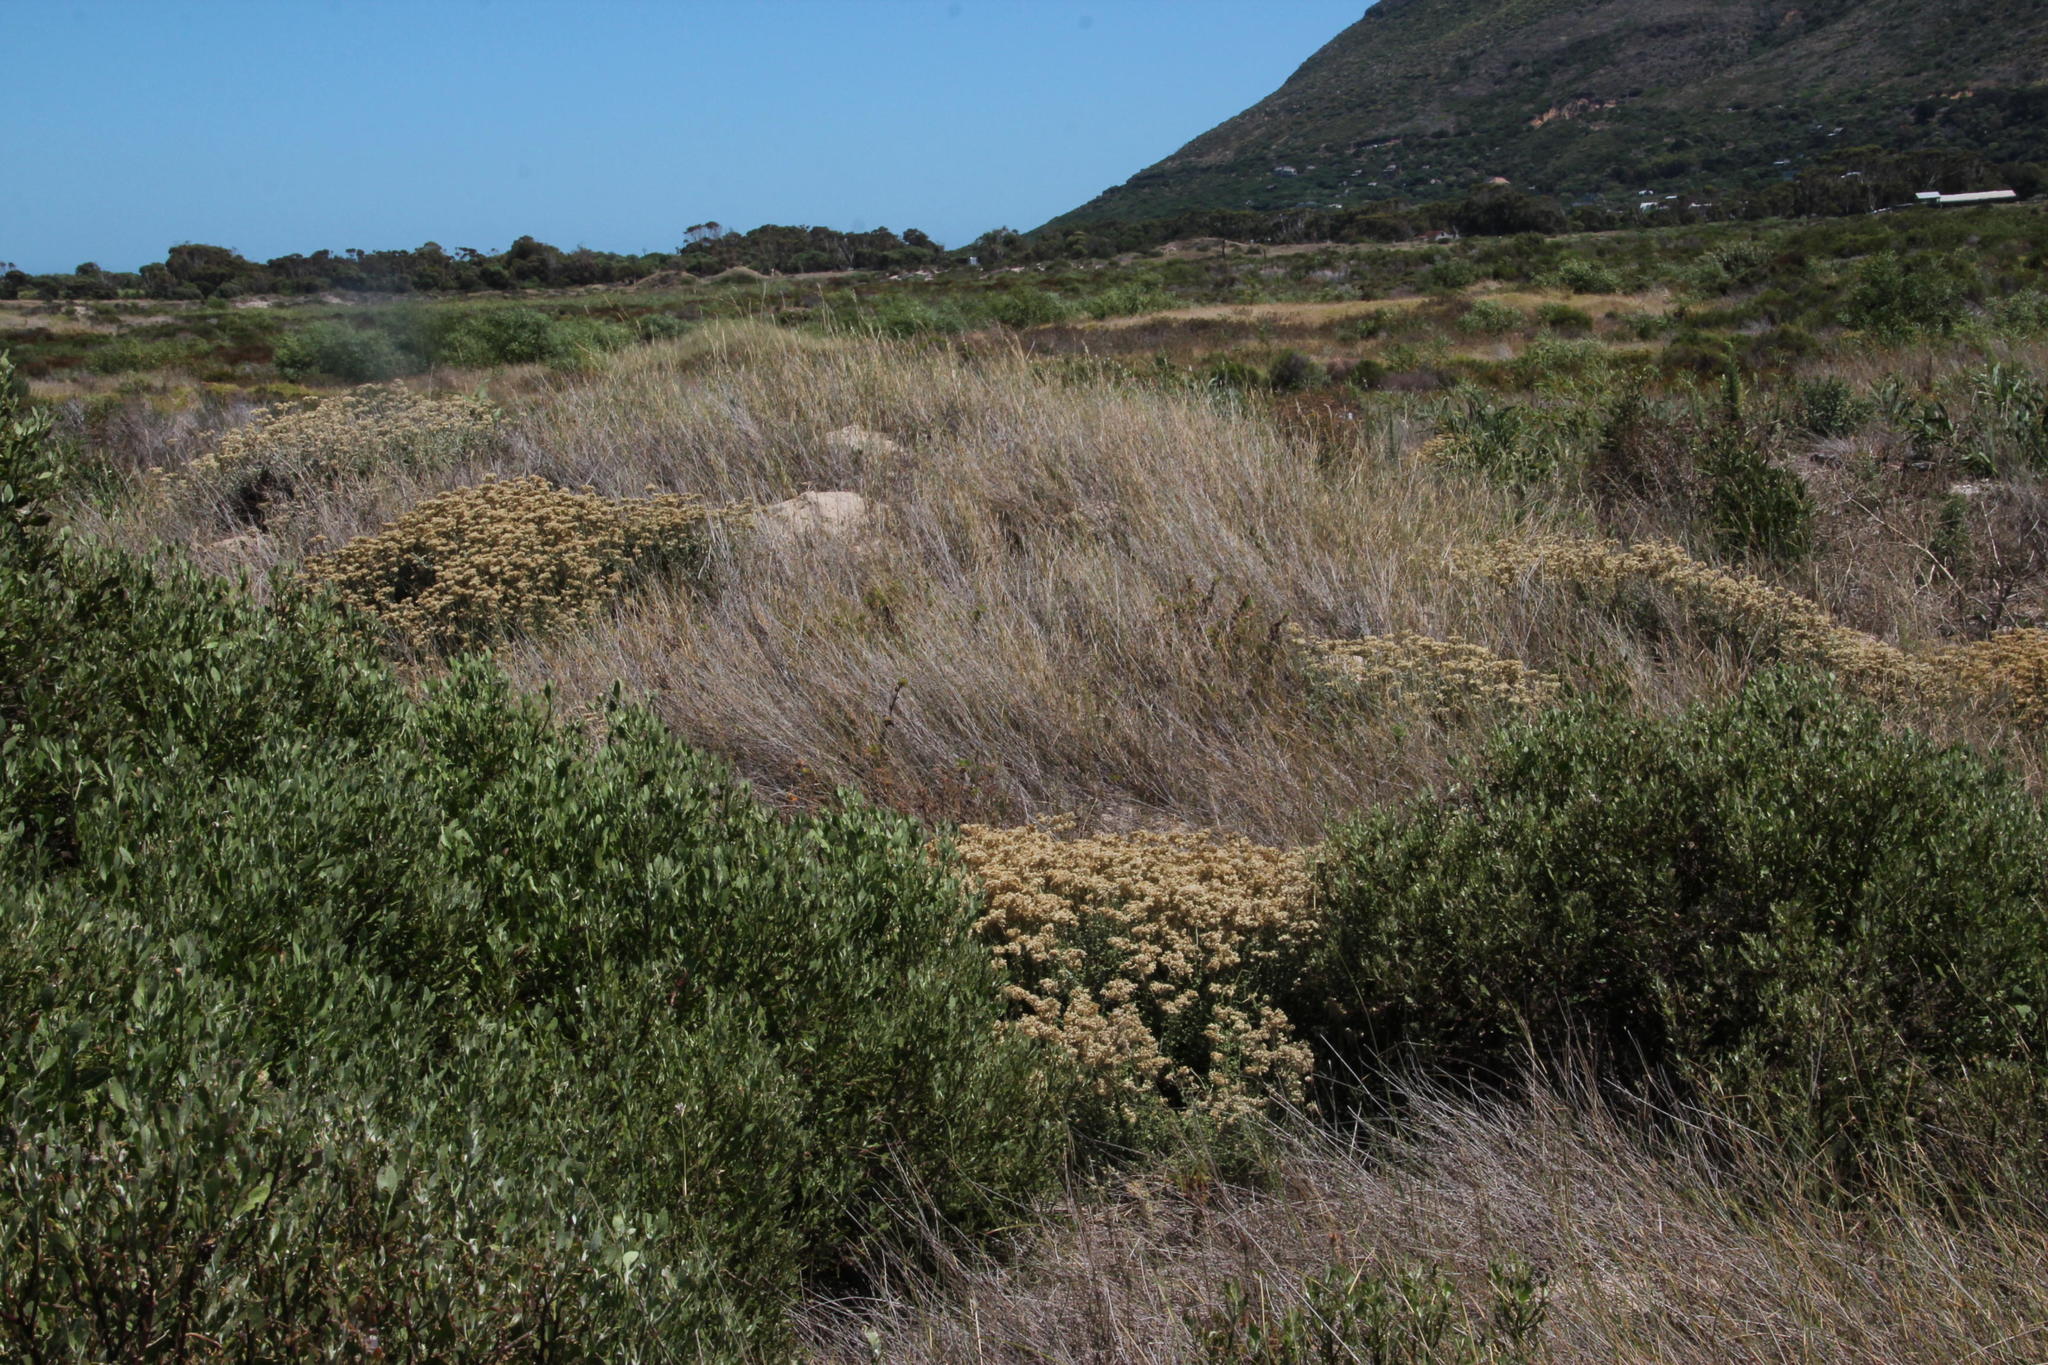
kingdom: Plantae
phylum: Tracheophyta
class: Liliopsida
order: Poales
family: Poaceae
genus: Ehrharta
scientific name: Ehrharta villosa
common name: Pyp grass
